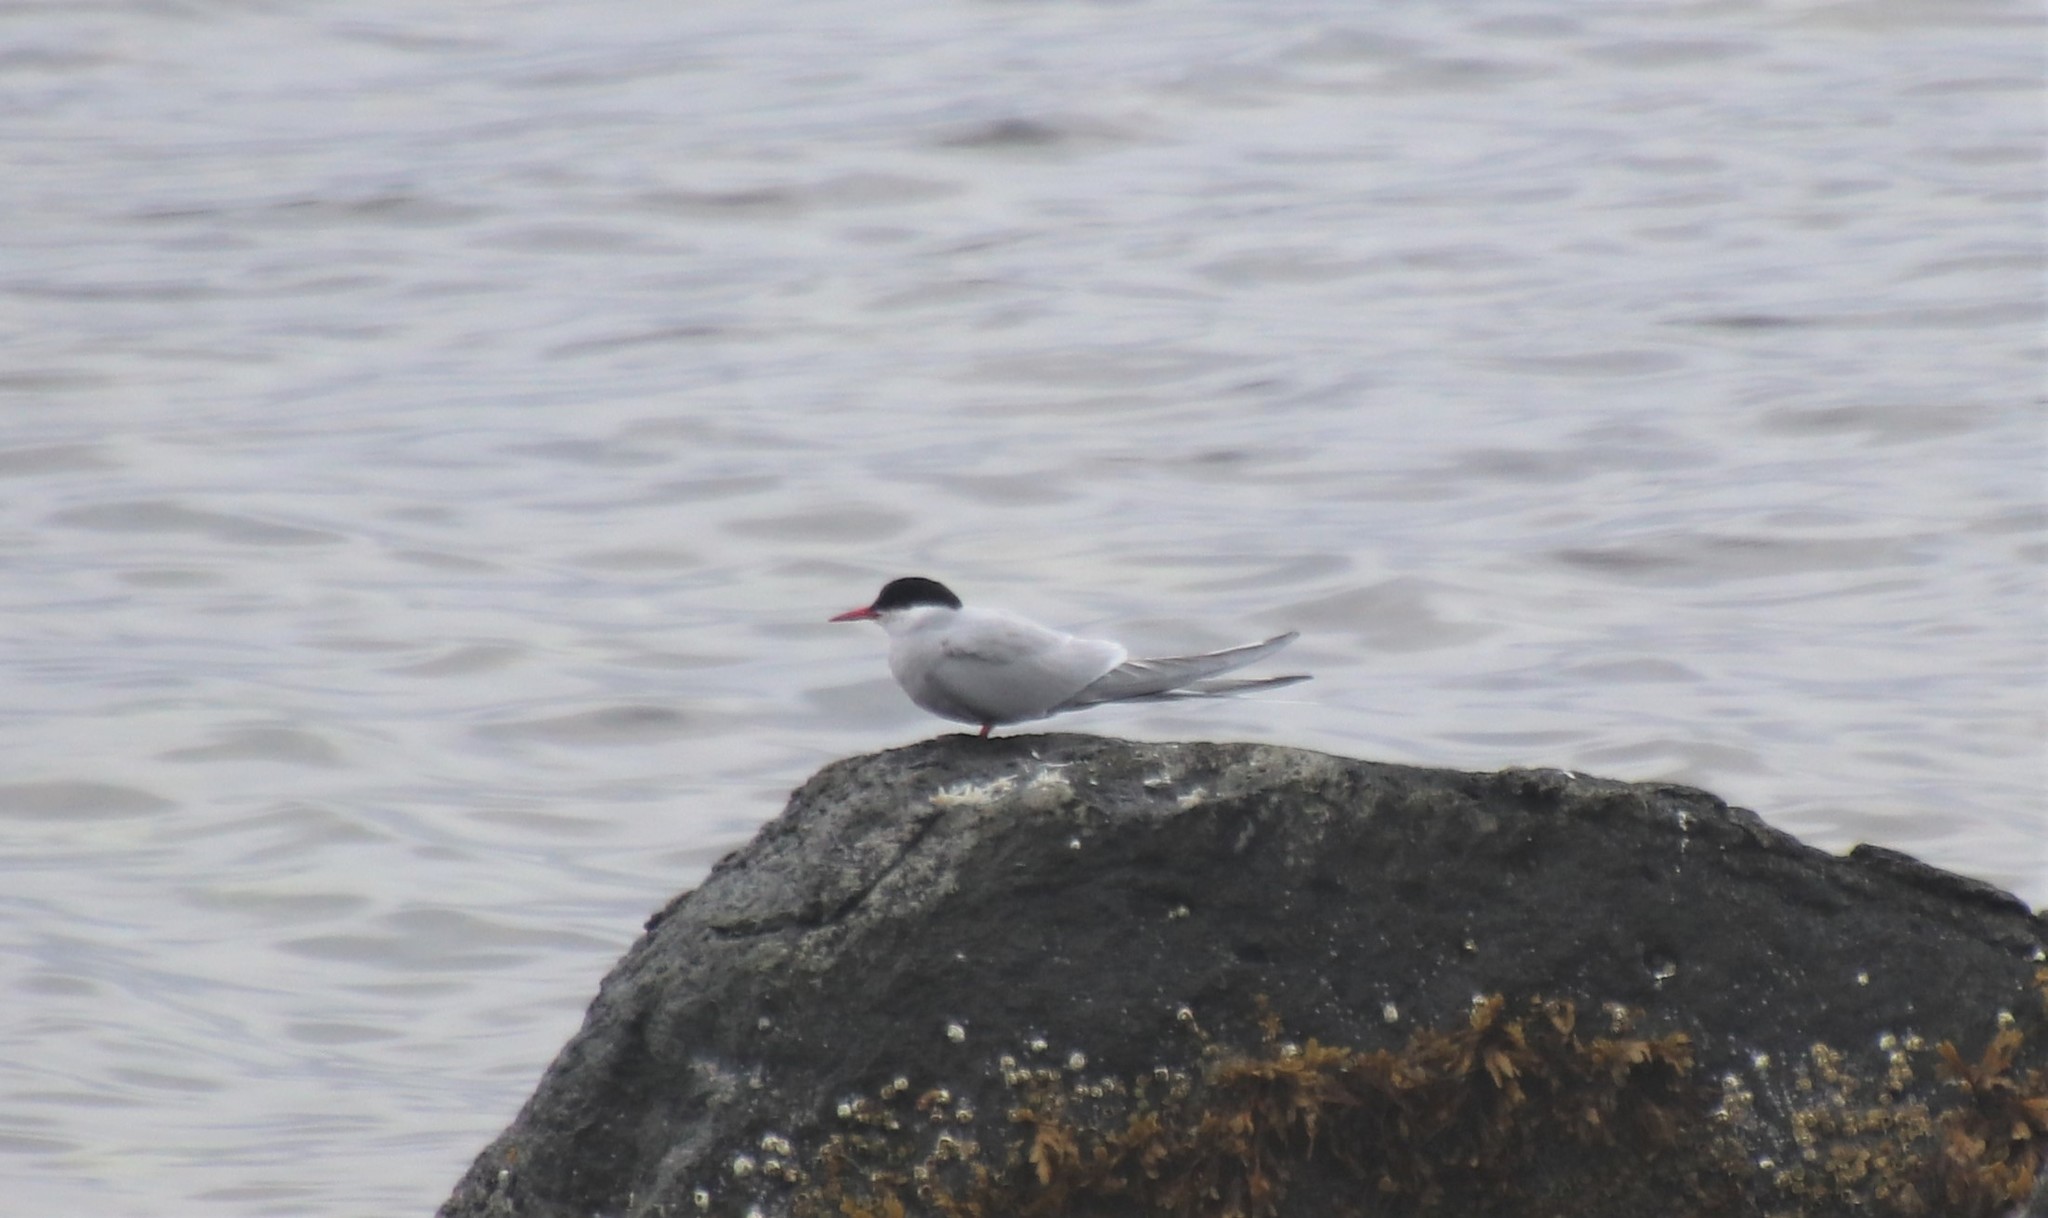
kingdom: Animalia
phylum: Chordata
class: Aves
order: Charadriiformes
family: Laridae
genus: Sterna
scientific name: Sterna paradisaea
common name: Arctic tern
